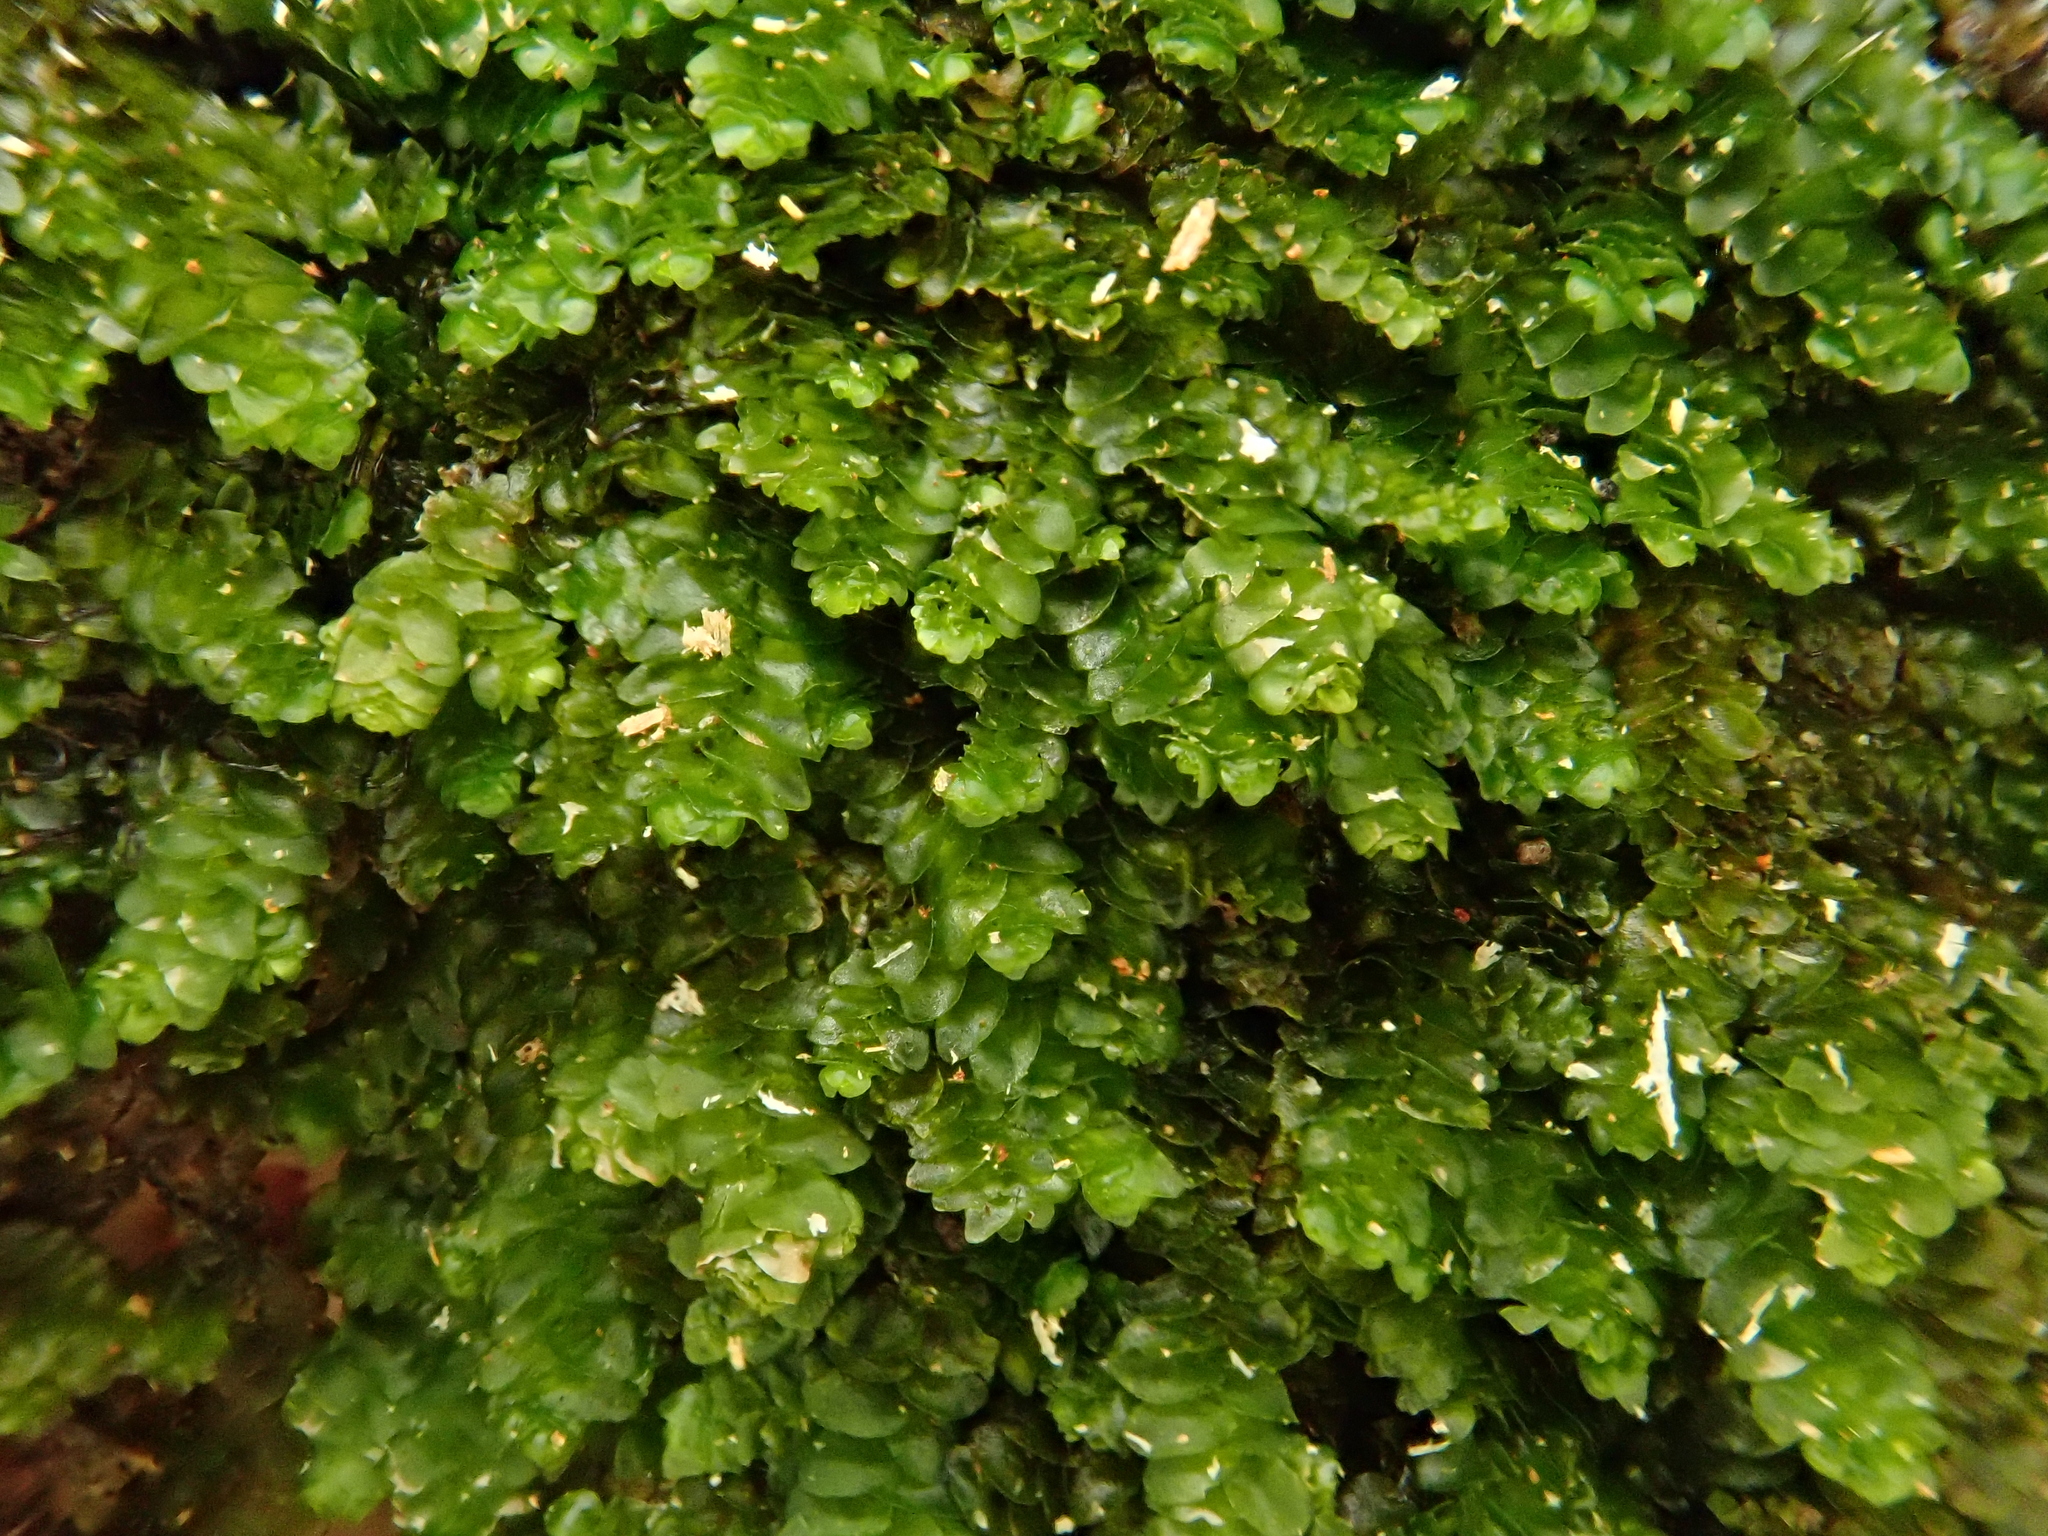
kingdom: Plantae
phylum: Marchantiophyta
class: Jungermanniopsida
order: Porellales
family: Porellaceae
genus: Porella
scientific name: Porella platyphylla
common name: Wall scalewort
